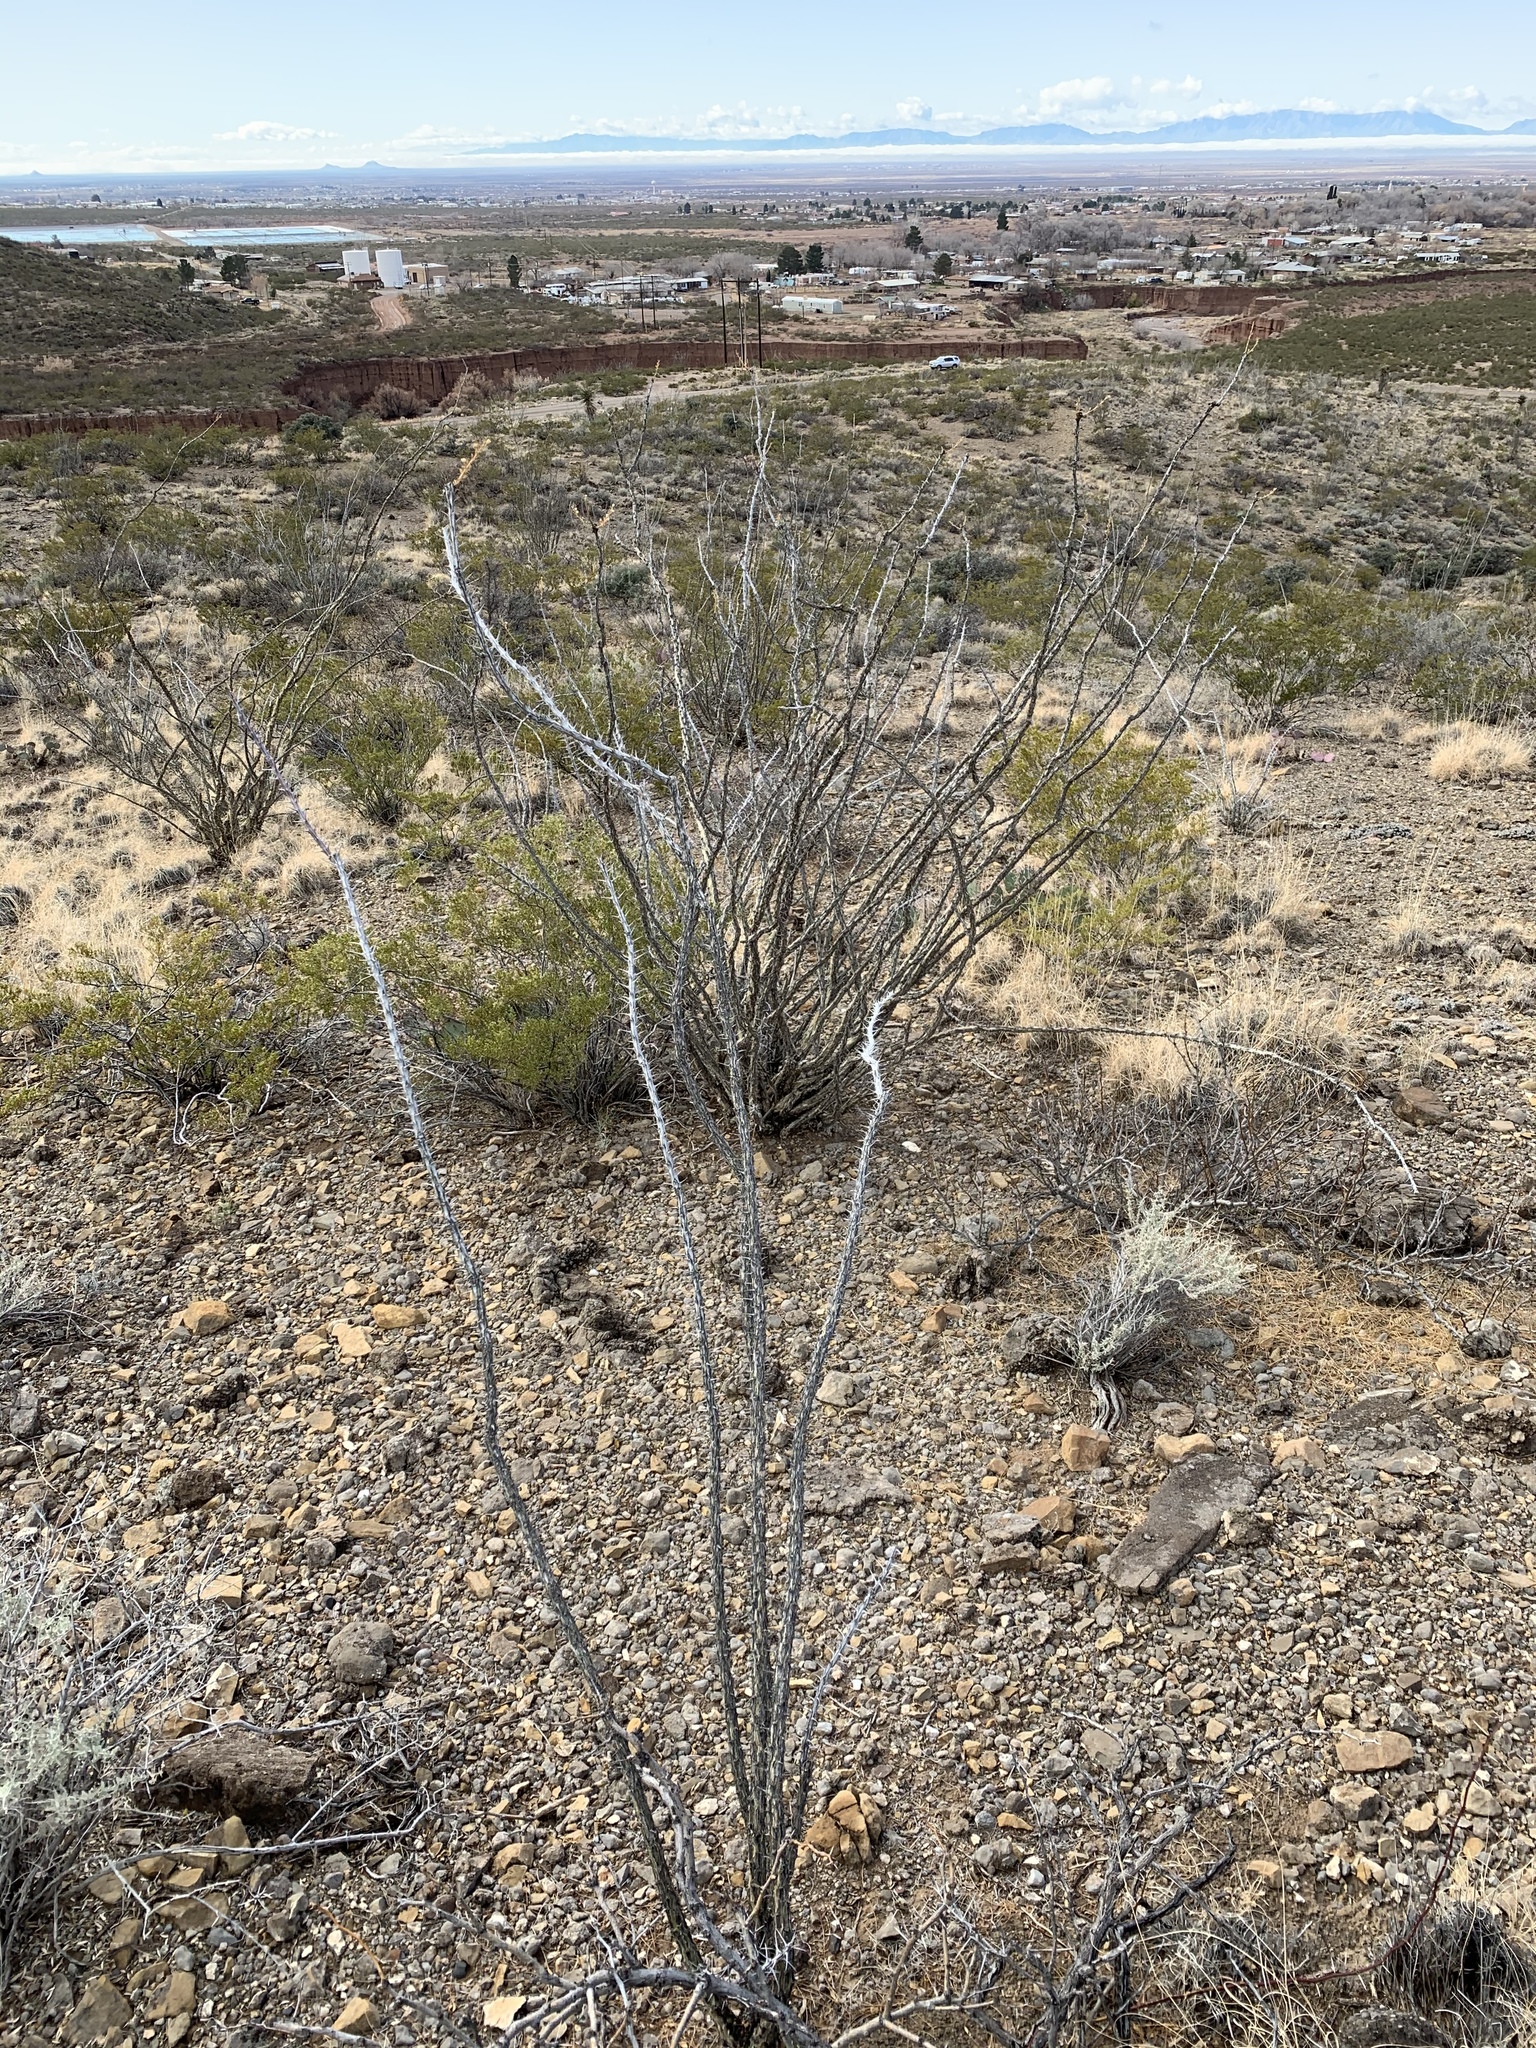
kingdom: Plantae
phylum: Tracheophyta
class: Magnoliopsida
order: Ericales
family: Fouquieriaceae
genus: Fouquieria
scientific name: Fouquieria splendens
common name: Vine-cactus
